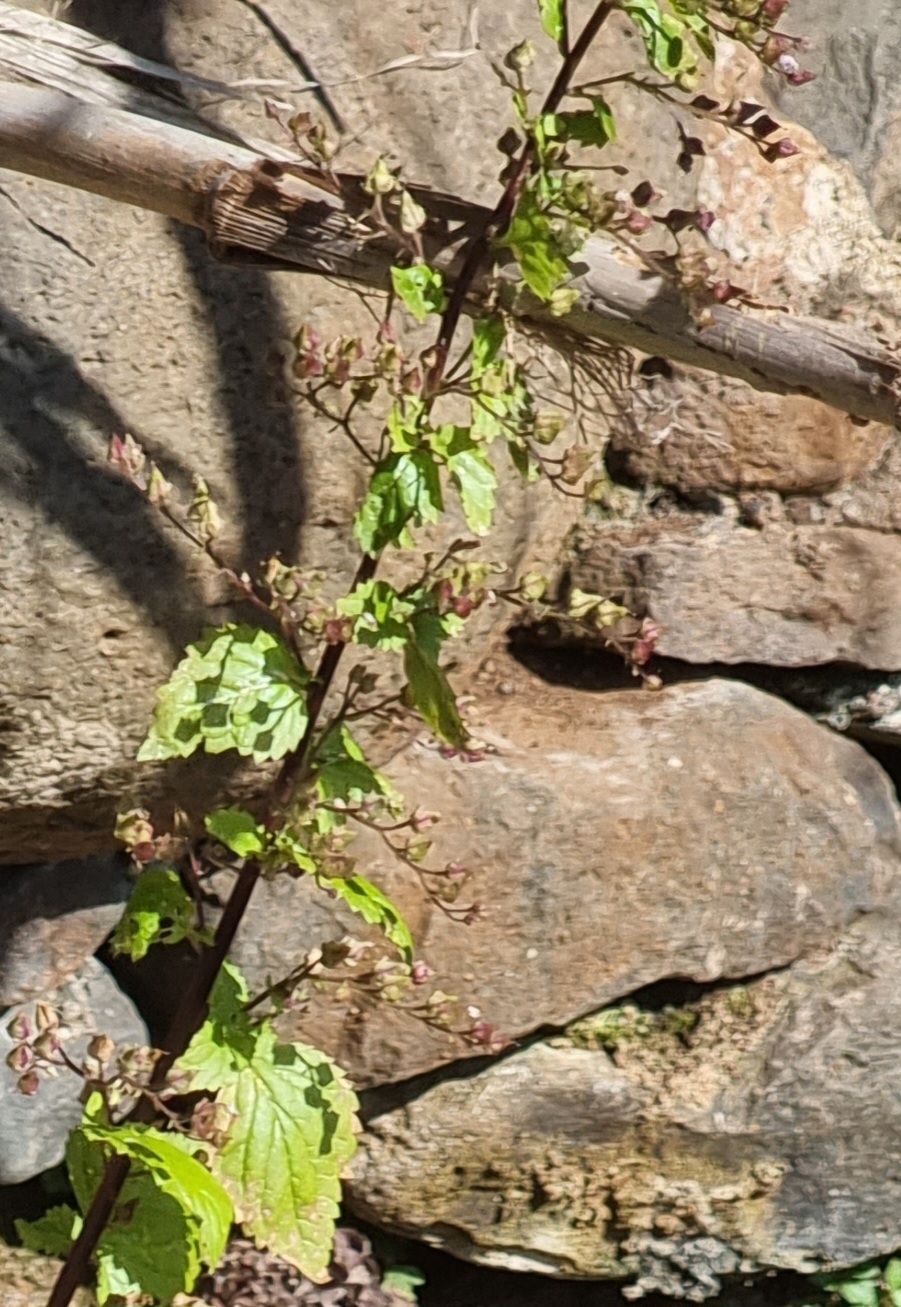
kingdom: Plantae
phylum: Tracheophyta
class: Magnoliopsida
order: Lamiales
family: Scrophulariaceae
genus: Scrophularia
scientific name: Scrophularia lowei
